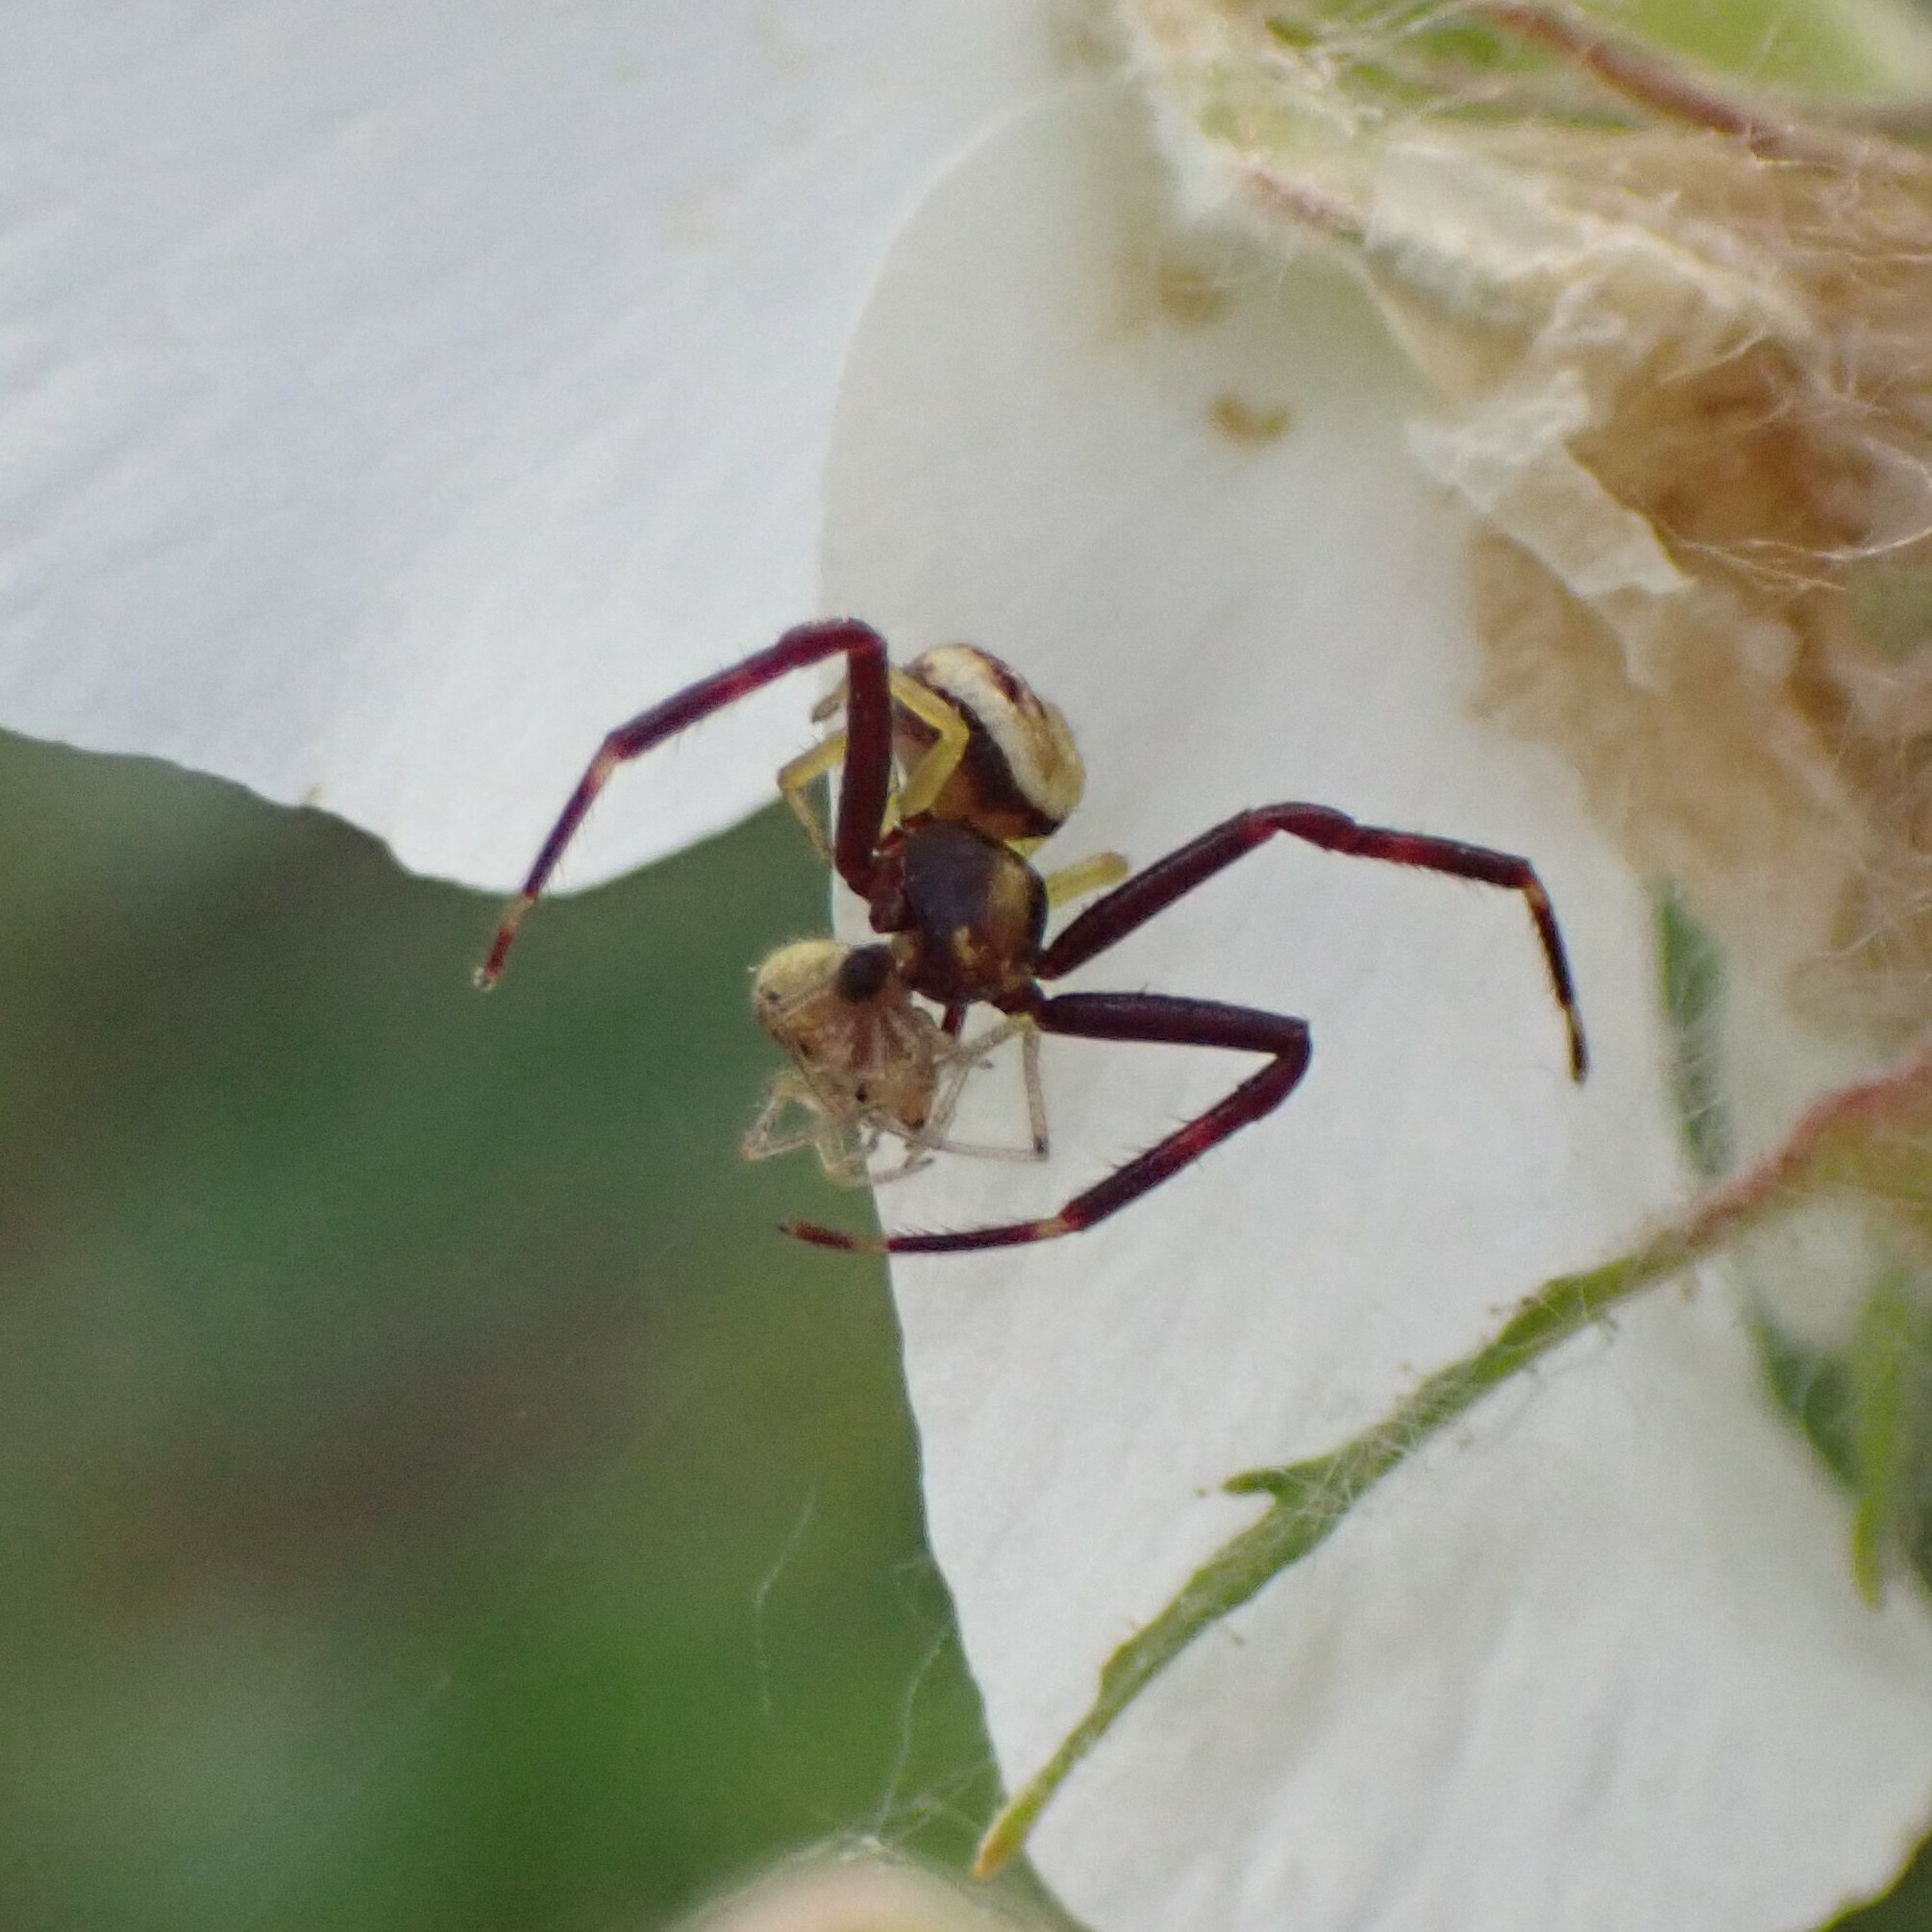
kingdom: Animalia
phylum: Arthropoda
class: Arachnida
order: Araneae
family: Thomisidae
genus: Misumena
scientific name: Misumena vatia
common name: Goldenrod crab spider
